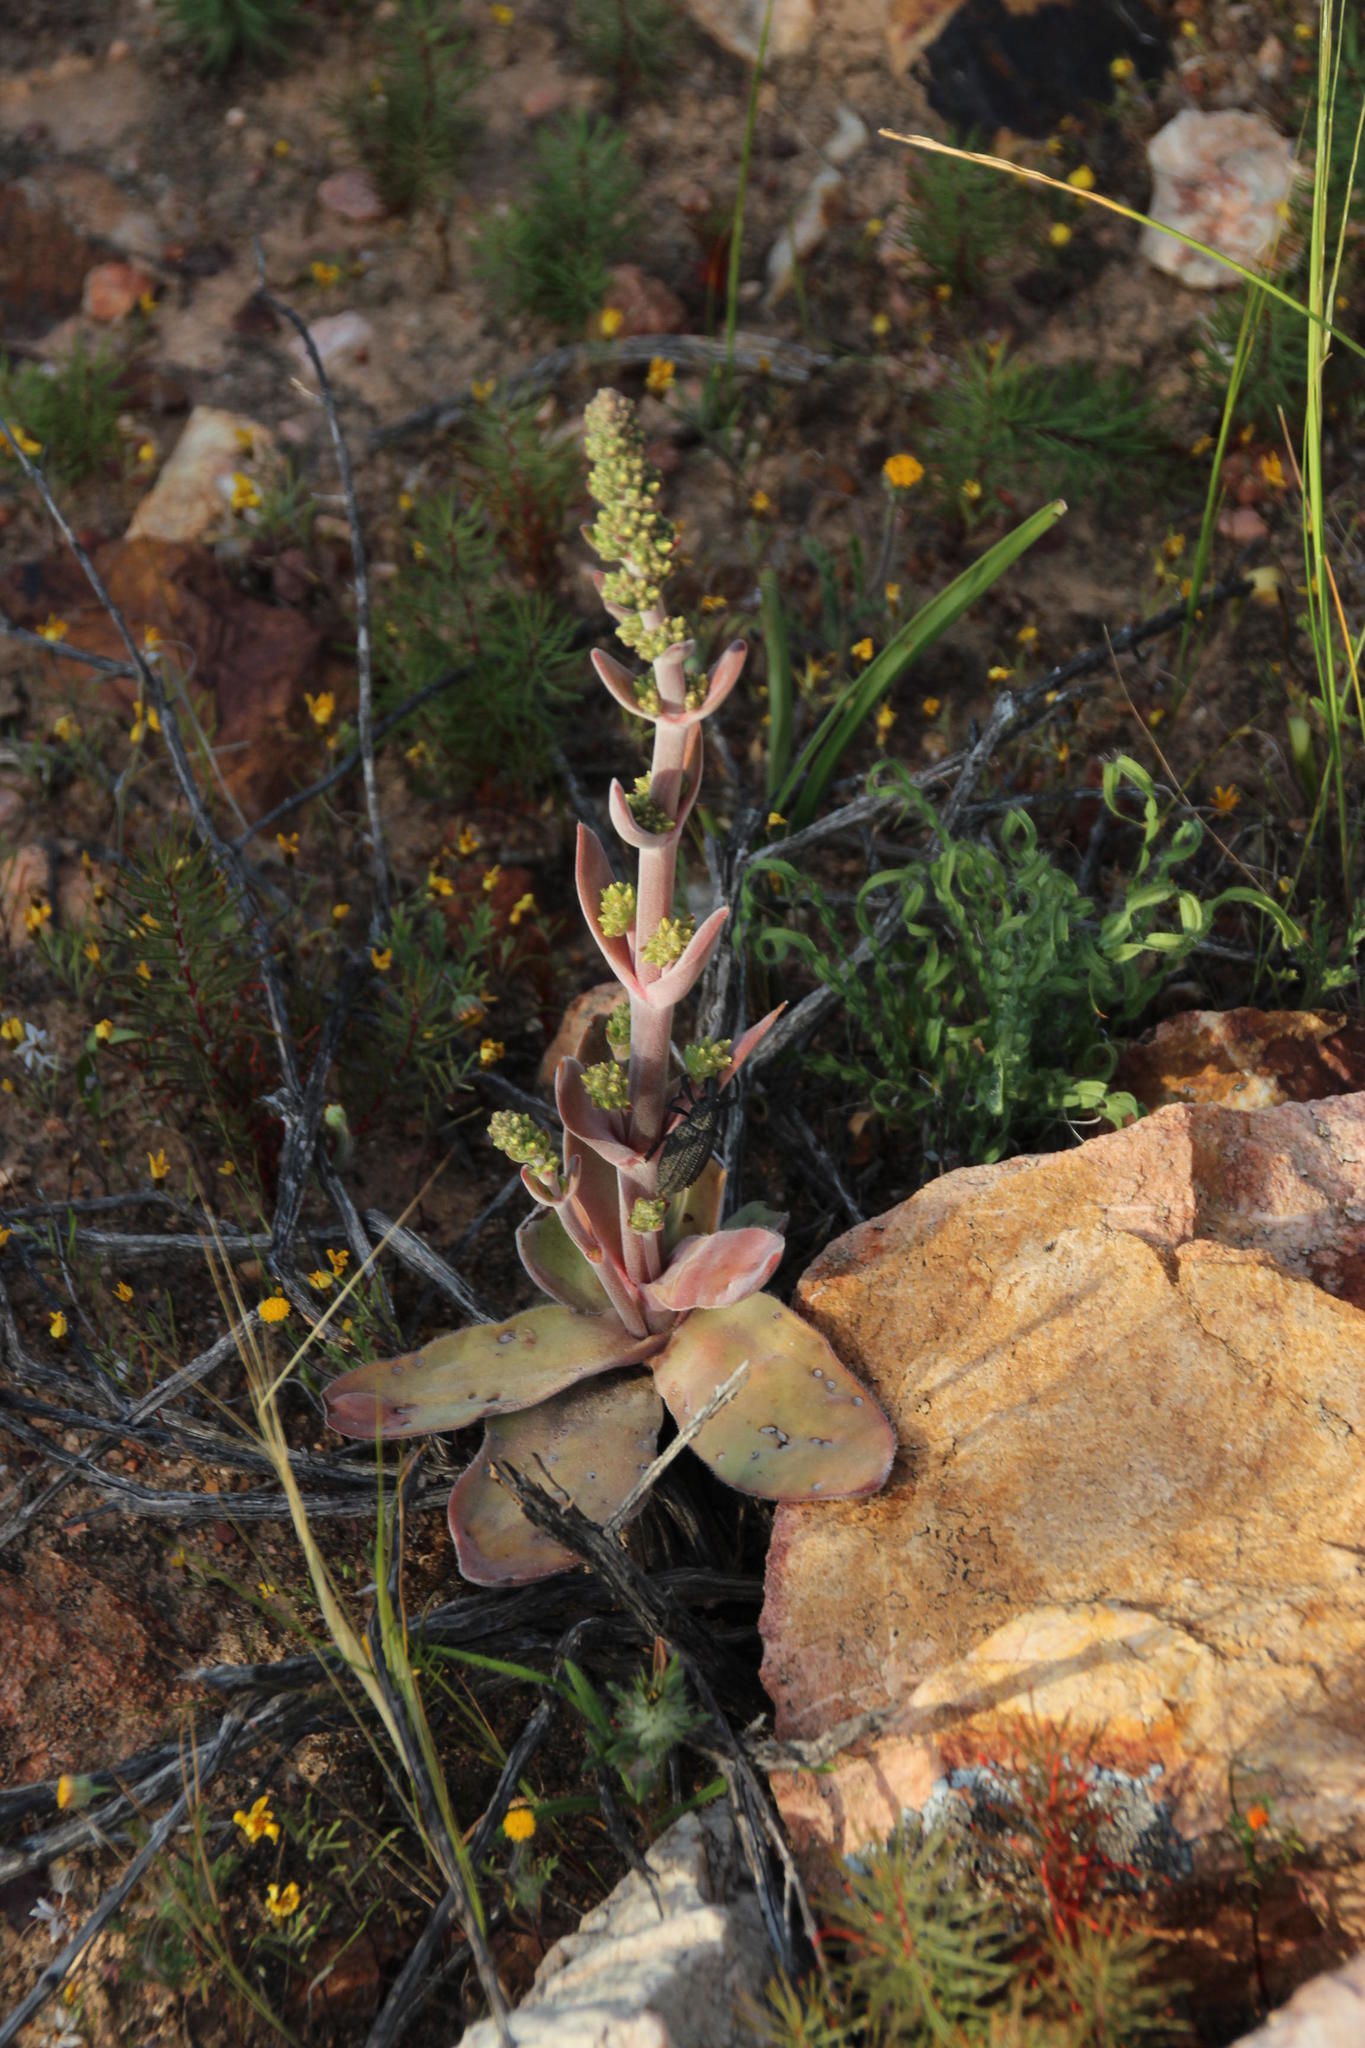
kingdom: Plantae
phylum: Tracheophyta
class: Magnoliopsida
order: Saxifragales
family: Crassulaceae
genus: Crassula
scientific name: Crassula tomentosa
